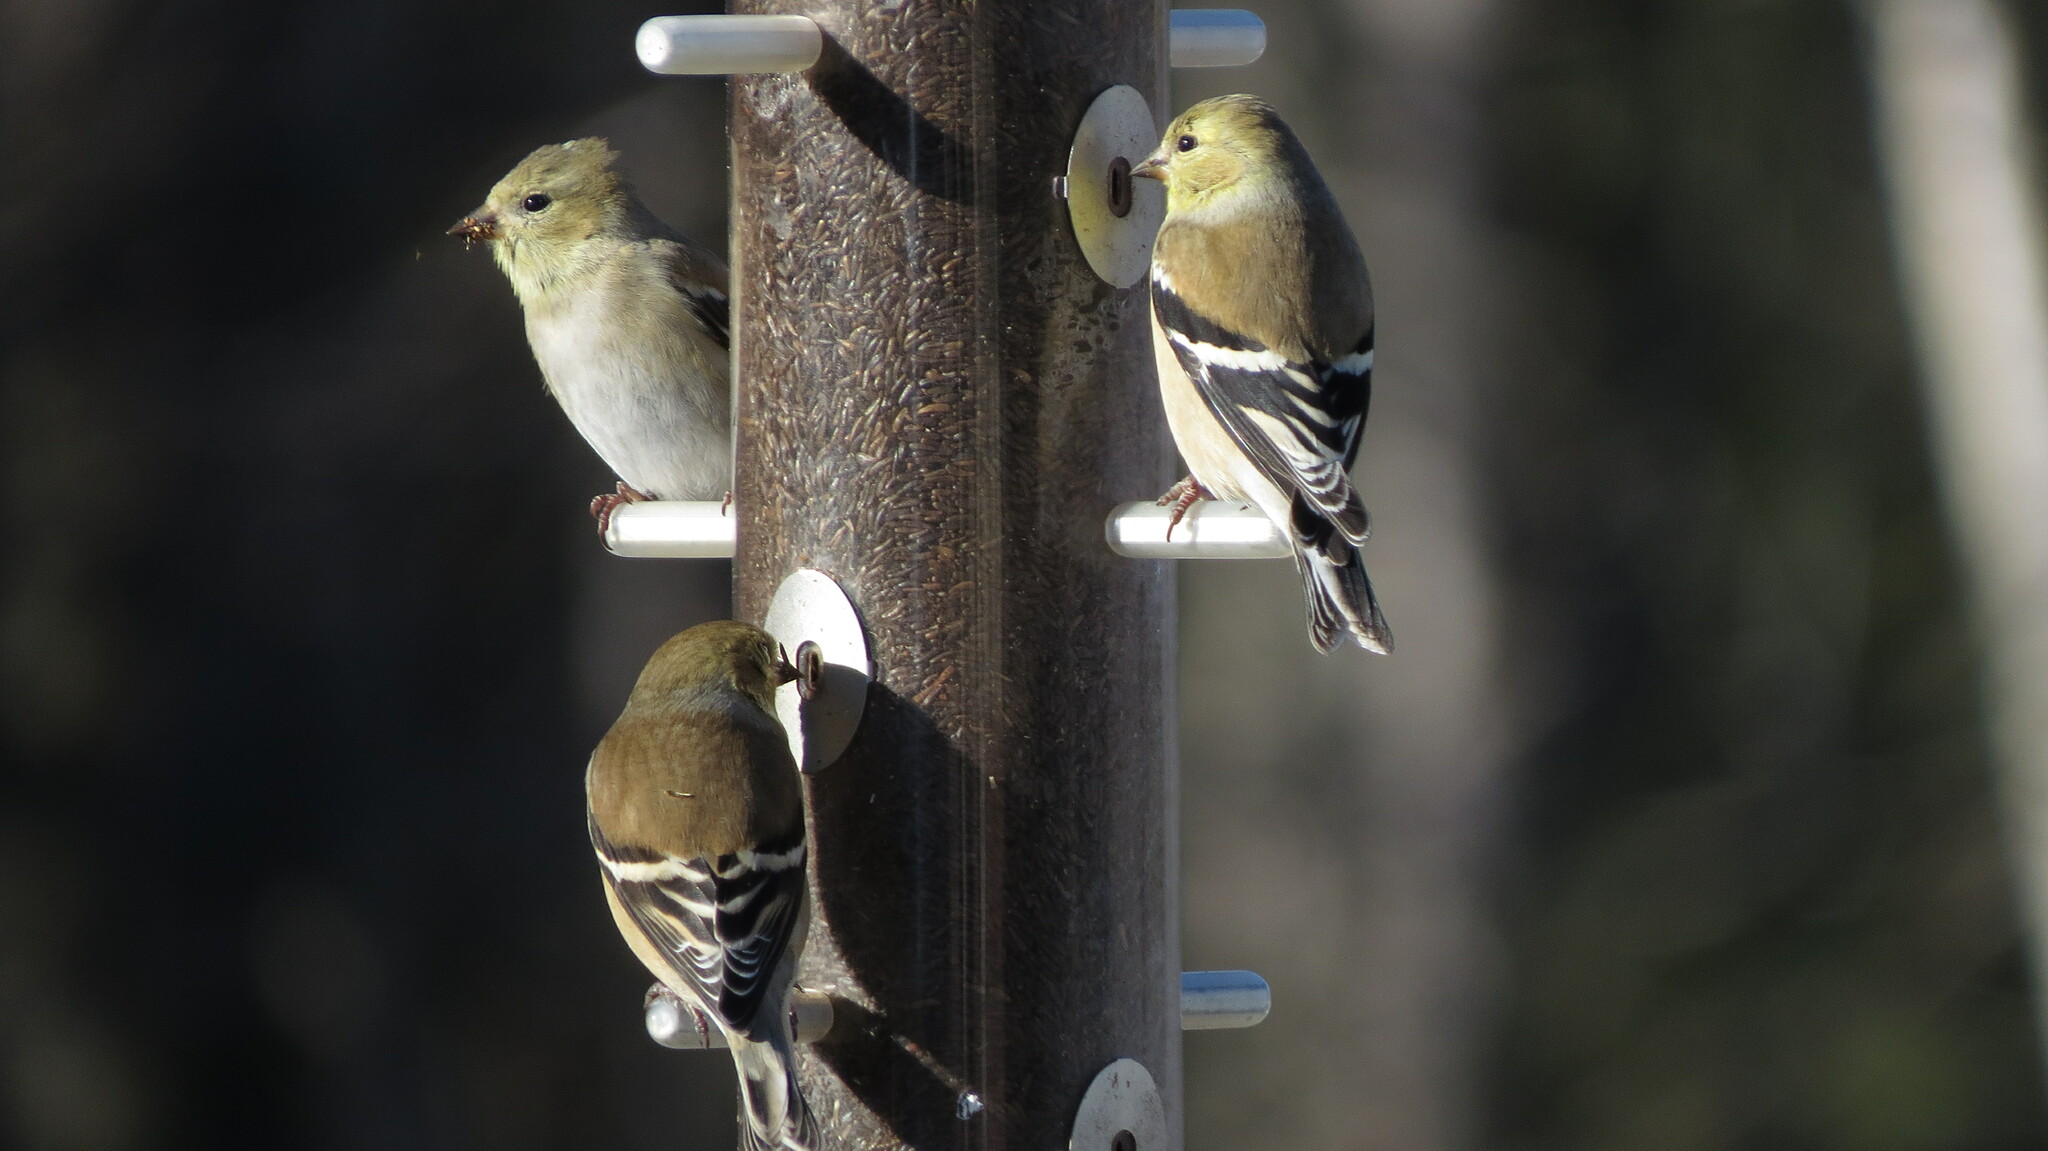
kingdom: Animalia
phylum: Chordata
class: Aves
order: Passeriformes
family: Fringillidae
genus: Spinus
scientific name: Spinus tristis
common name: American goldfinch
